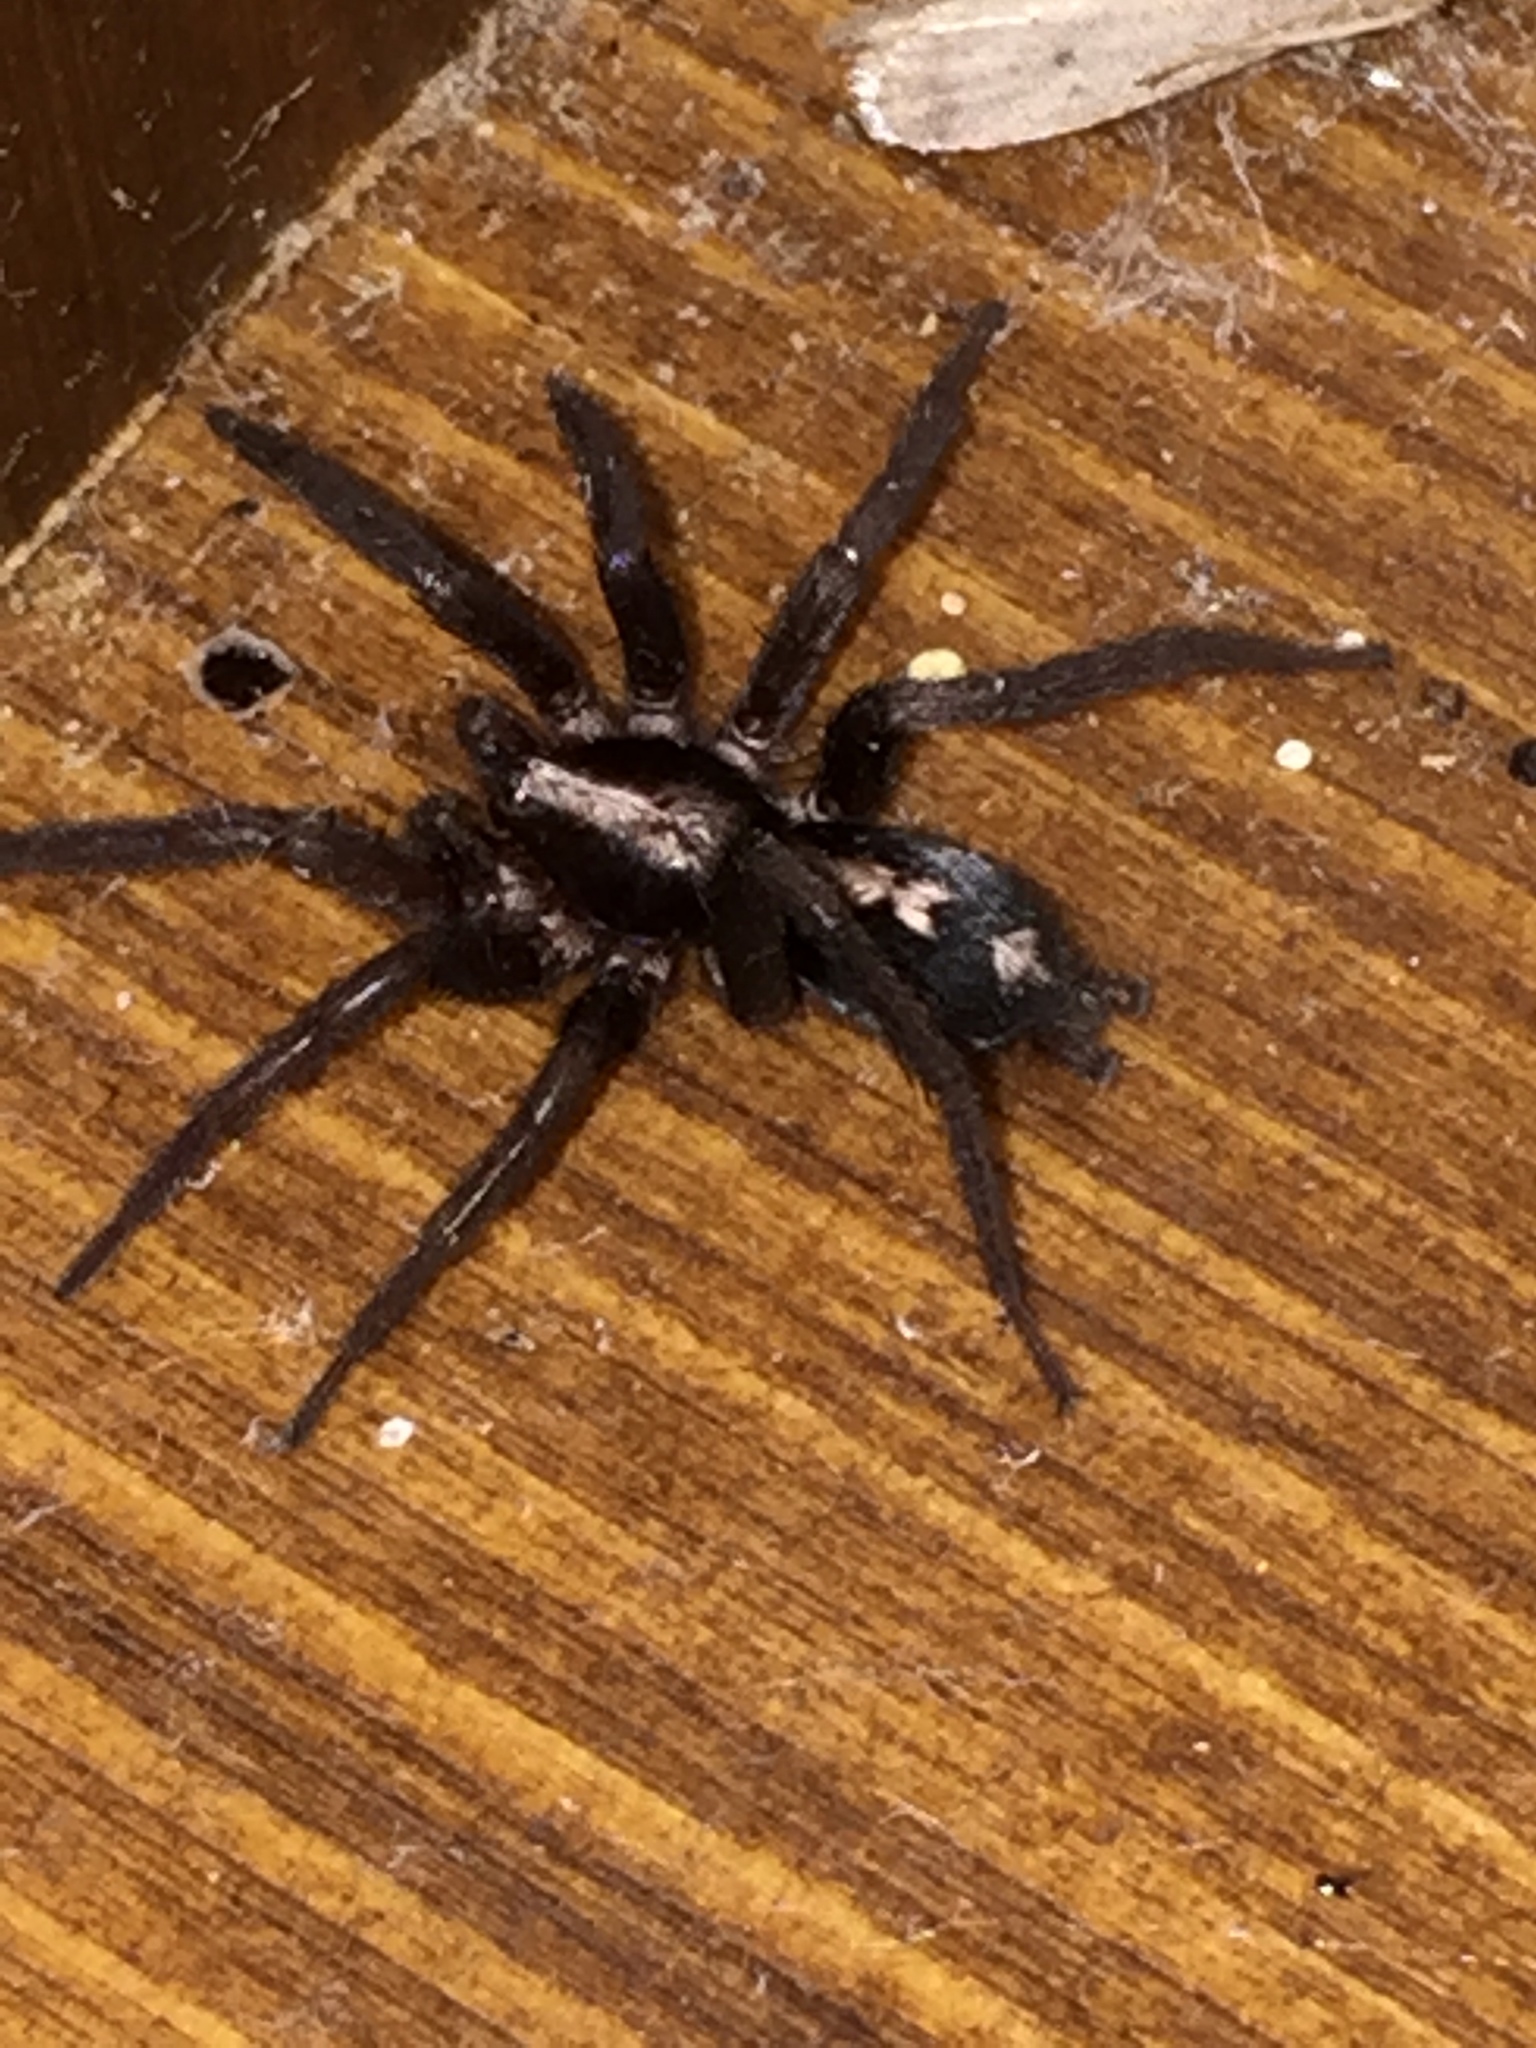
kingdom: Animalia
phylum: Arthropoda
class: Arachnida
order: Araneae
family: Gnaphosidae
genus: Herpyllus
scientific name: Herpyllus propinquus
